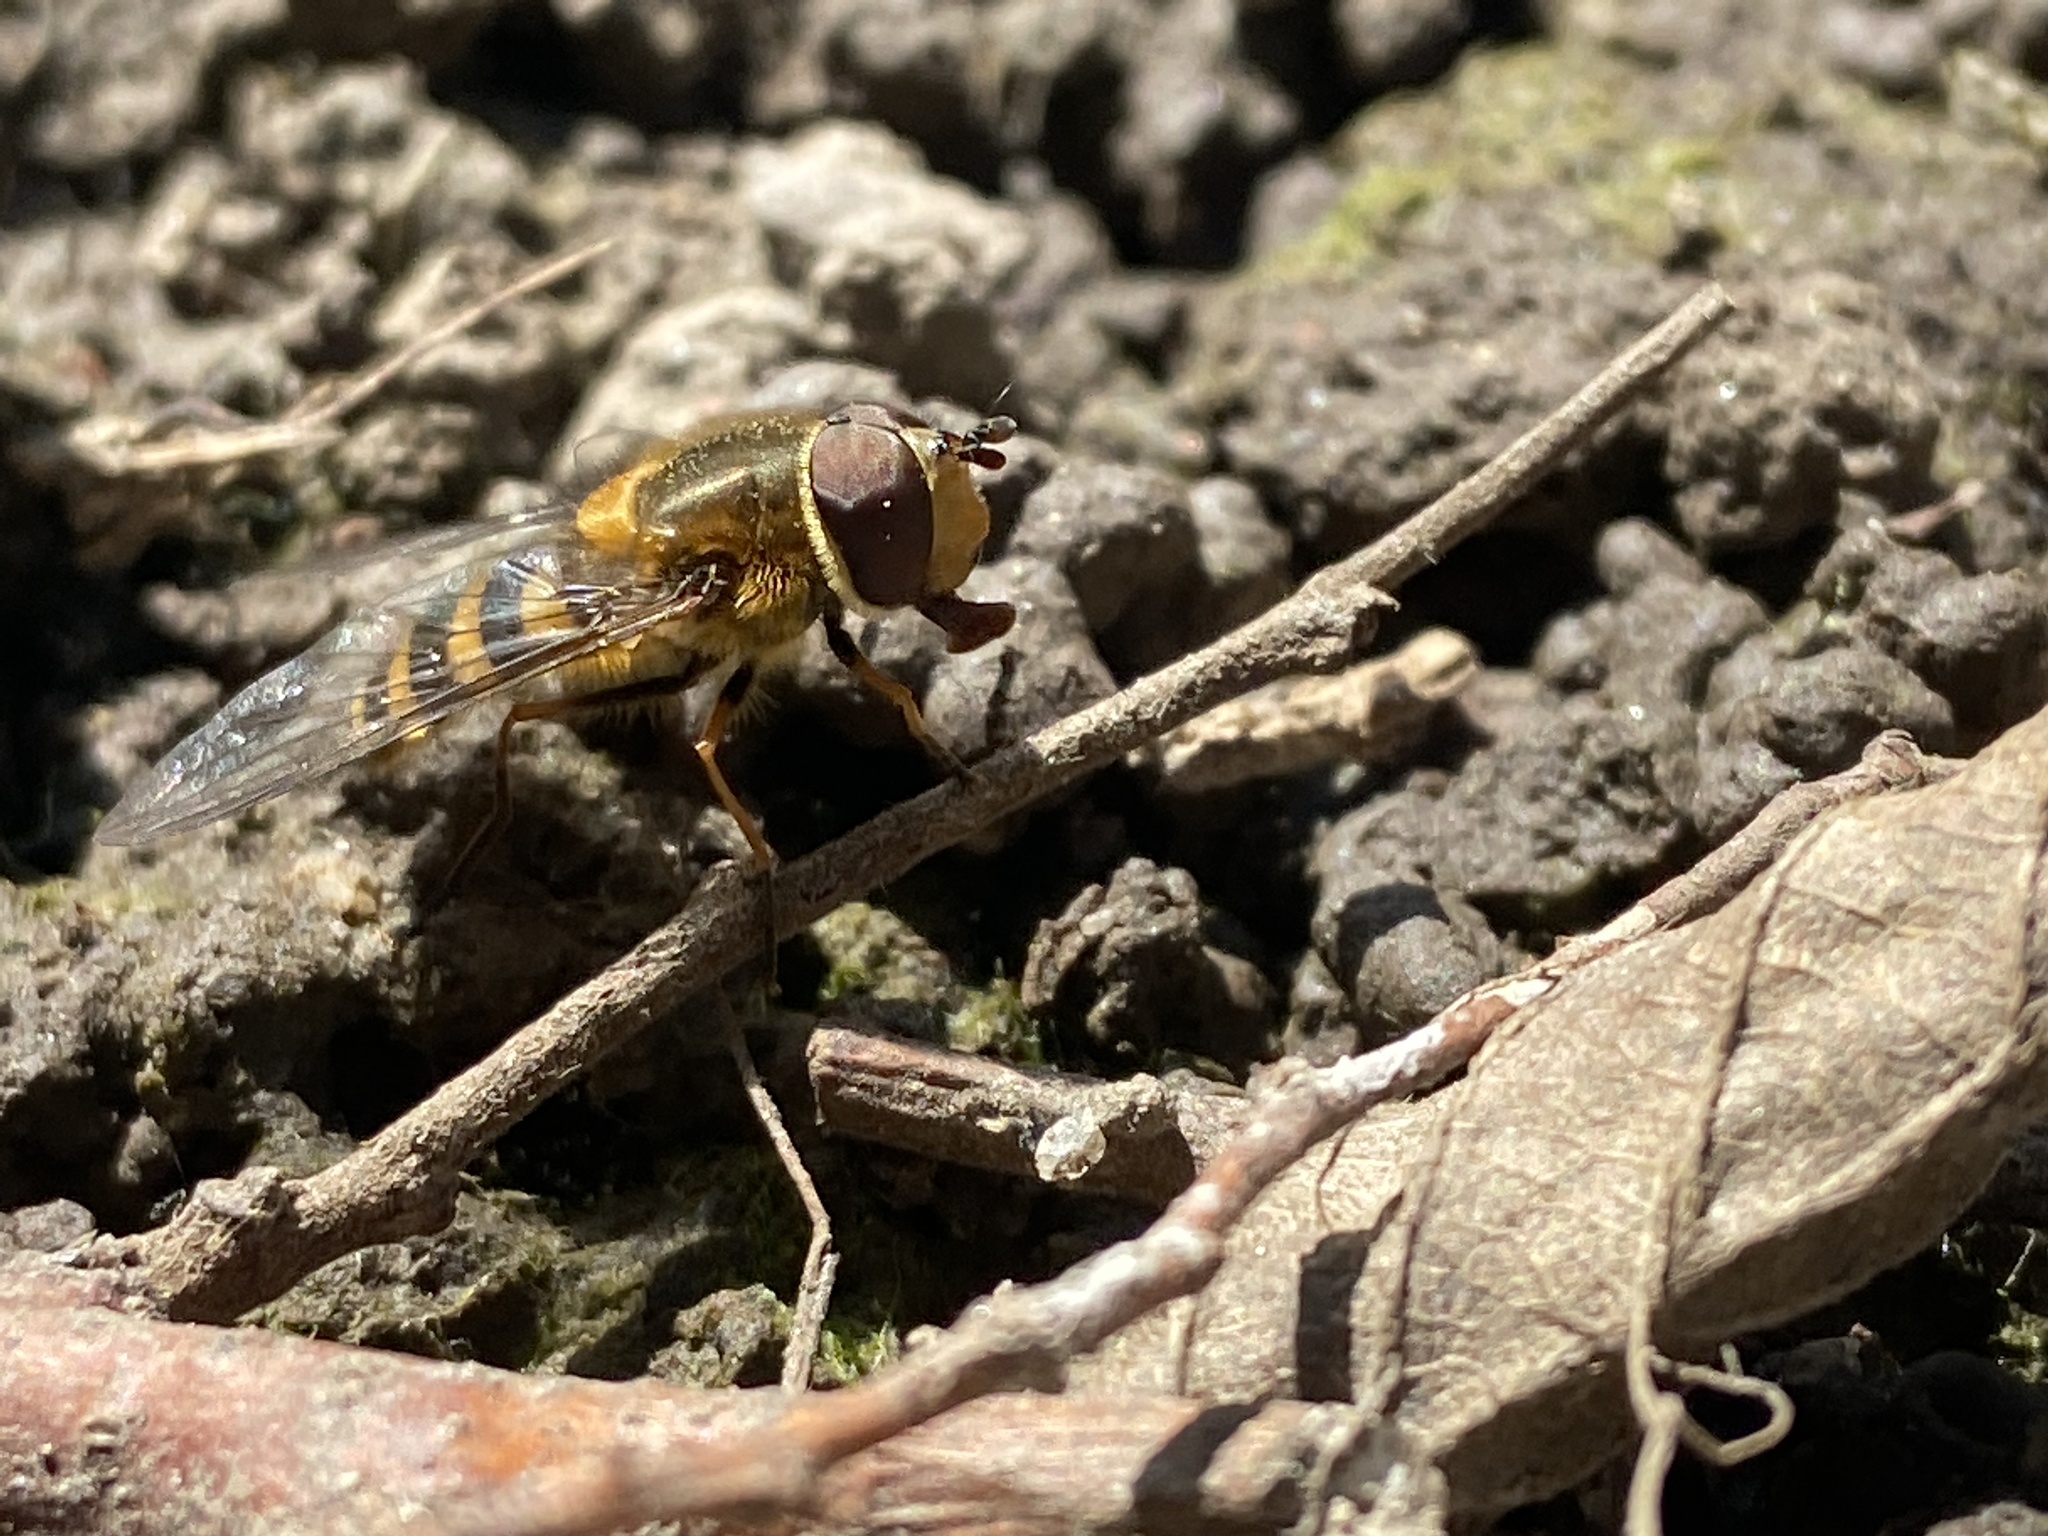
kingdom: Animalia
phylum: Arthropoda
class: Insecta
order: Diptera
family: Syrphidae
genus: Syrphus
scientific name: Syrphus
